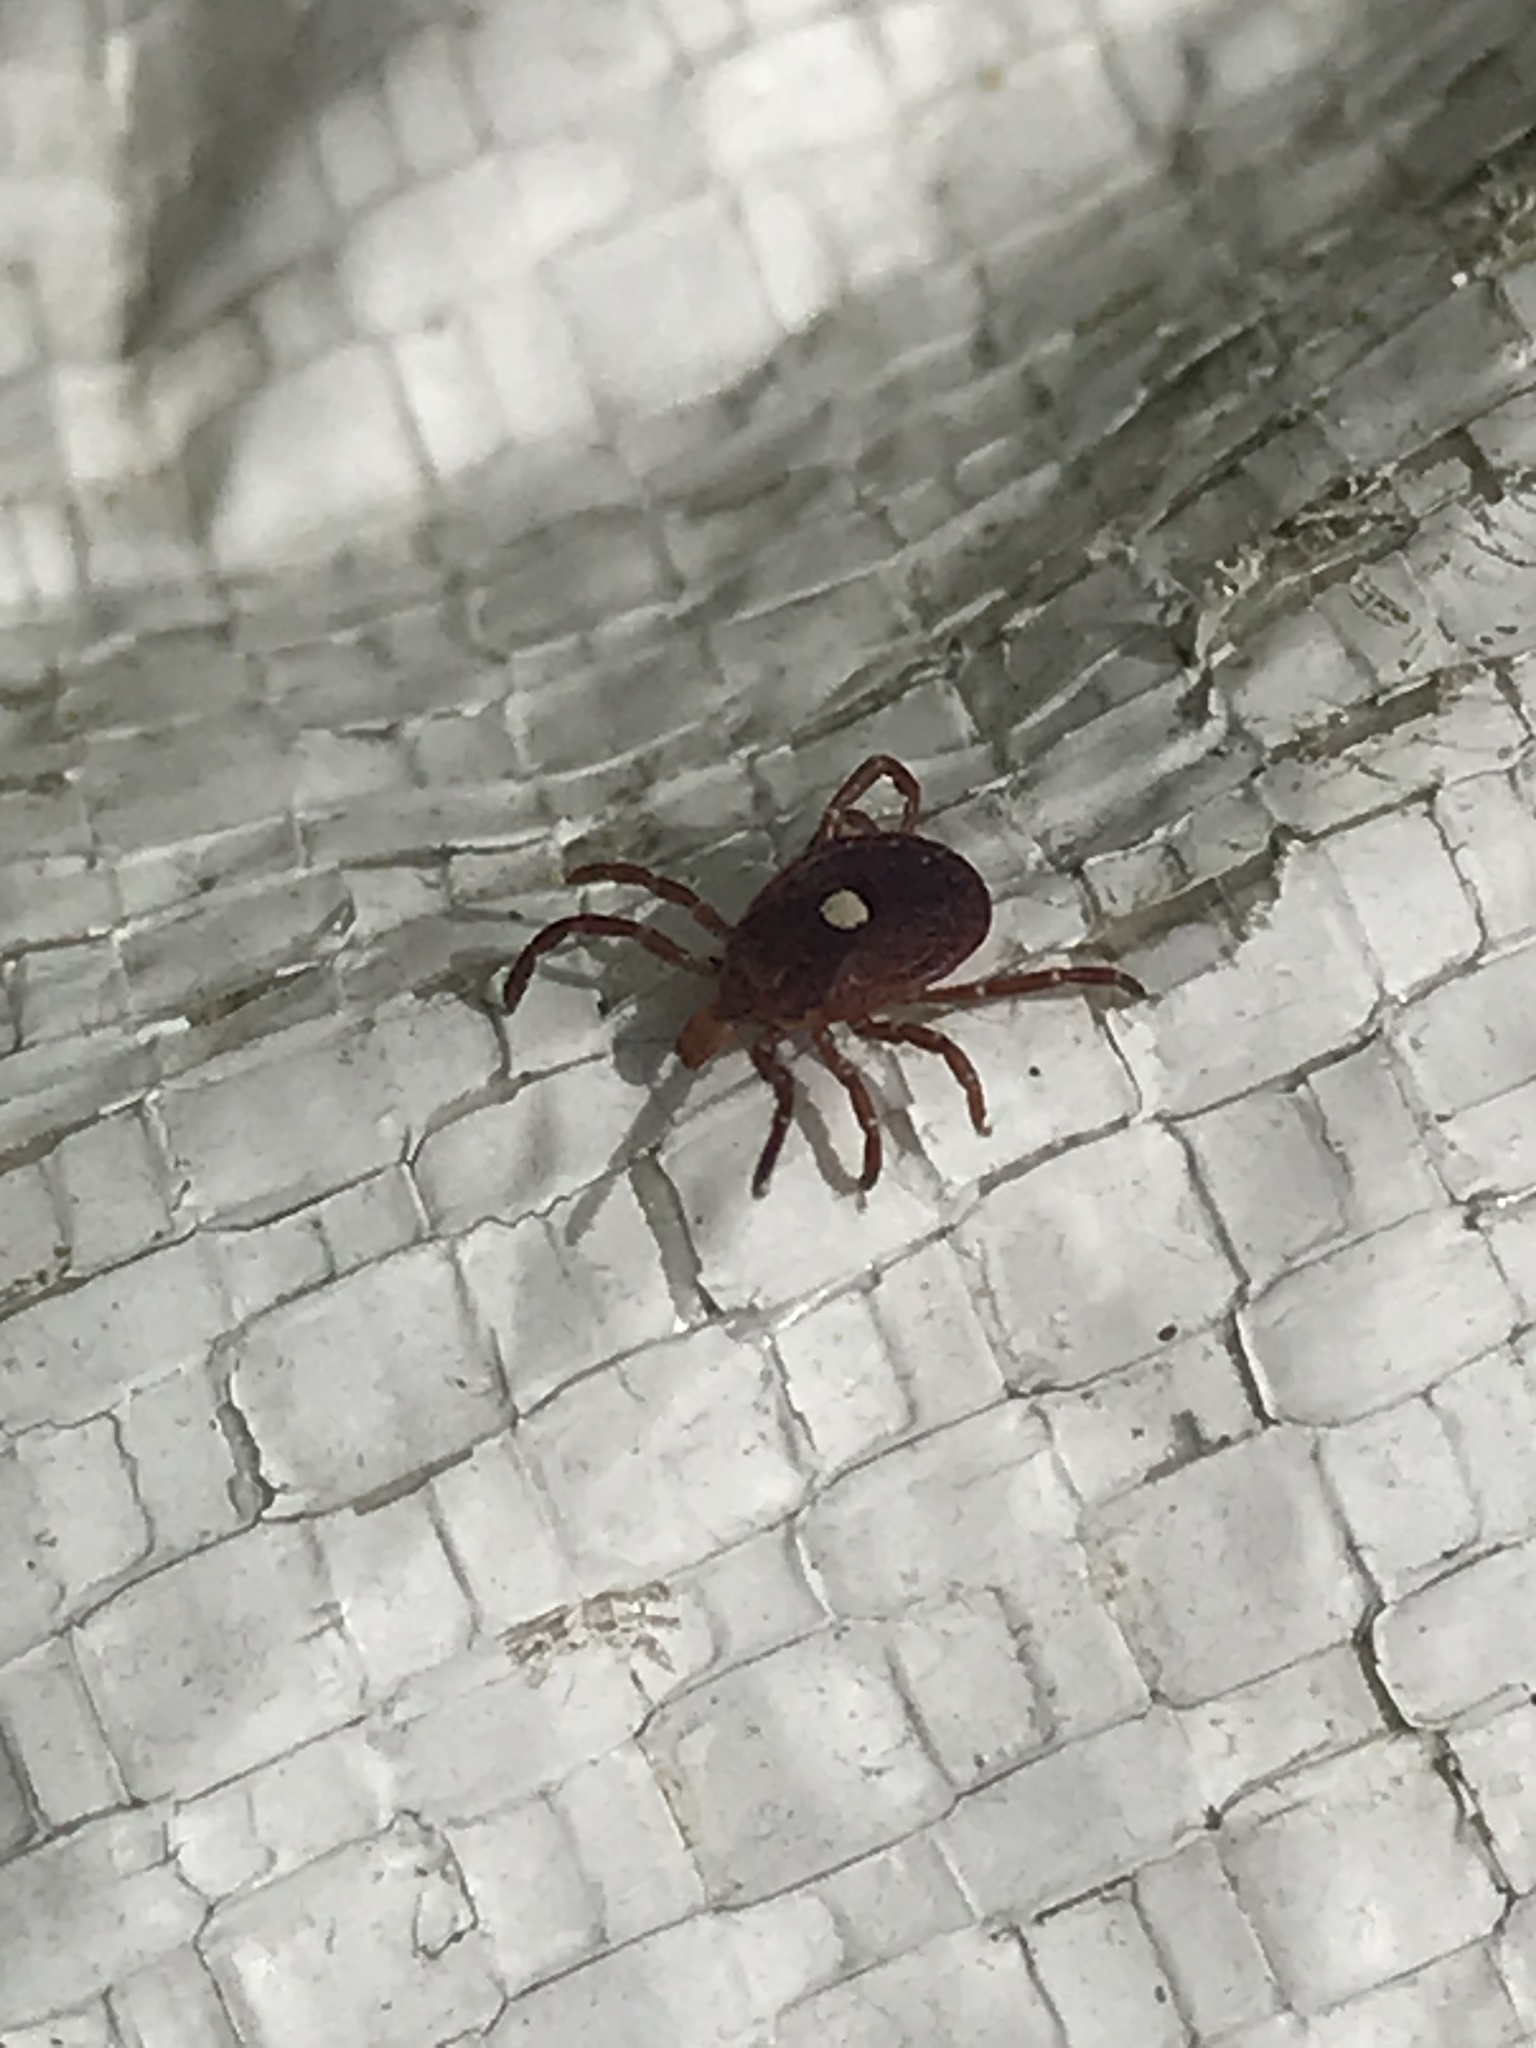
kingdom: Animalia
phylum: Arthropoda
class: Arachnida
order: Ixodida
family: Ixodidae
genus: Amblyomma
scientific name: Amblyomma americanum
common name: Lone star tick
